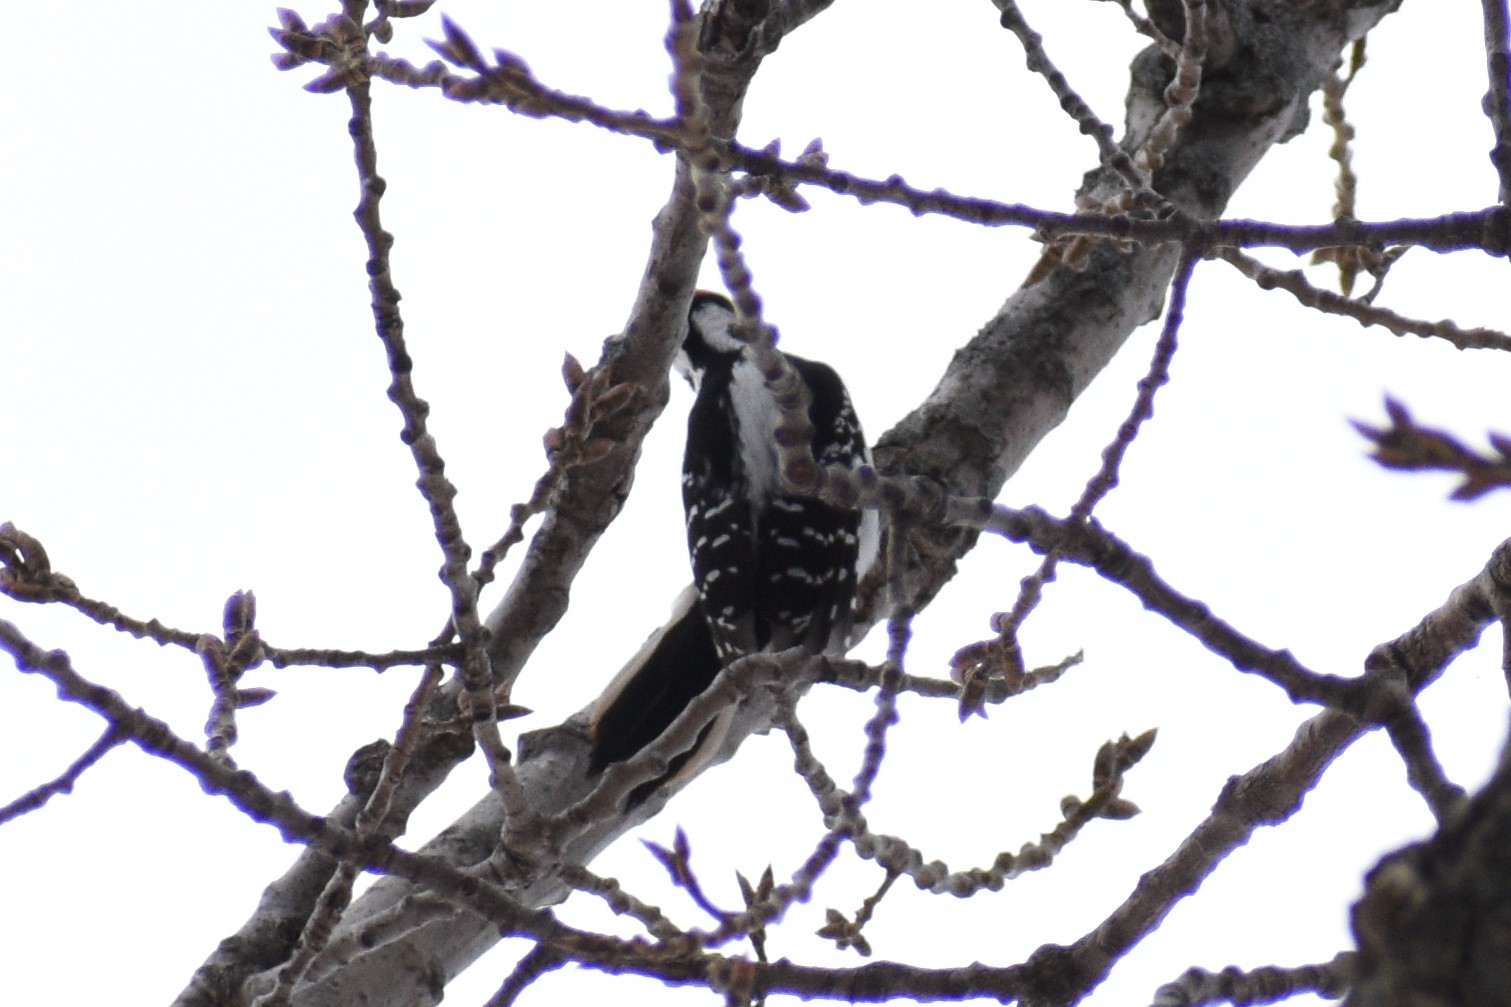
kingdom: Animalia
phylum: Chordata
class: Aves
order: Piciformes
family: Picidae
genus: Leuconotopicus
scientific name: Leuconotopicus villosus
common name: Hairy woodpecker
